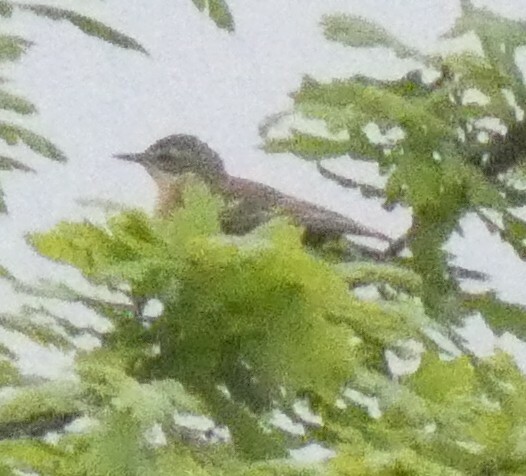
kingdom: Animalia
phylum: Chordata
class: Aves
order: Passeriformes
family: Motacillidae
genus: Motacilla
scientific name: Motacilla flava
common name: Western yellow wagtail
